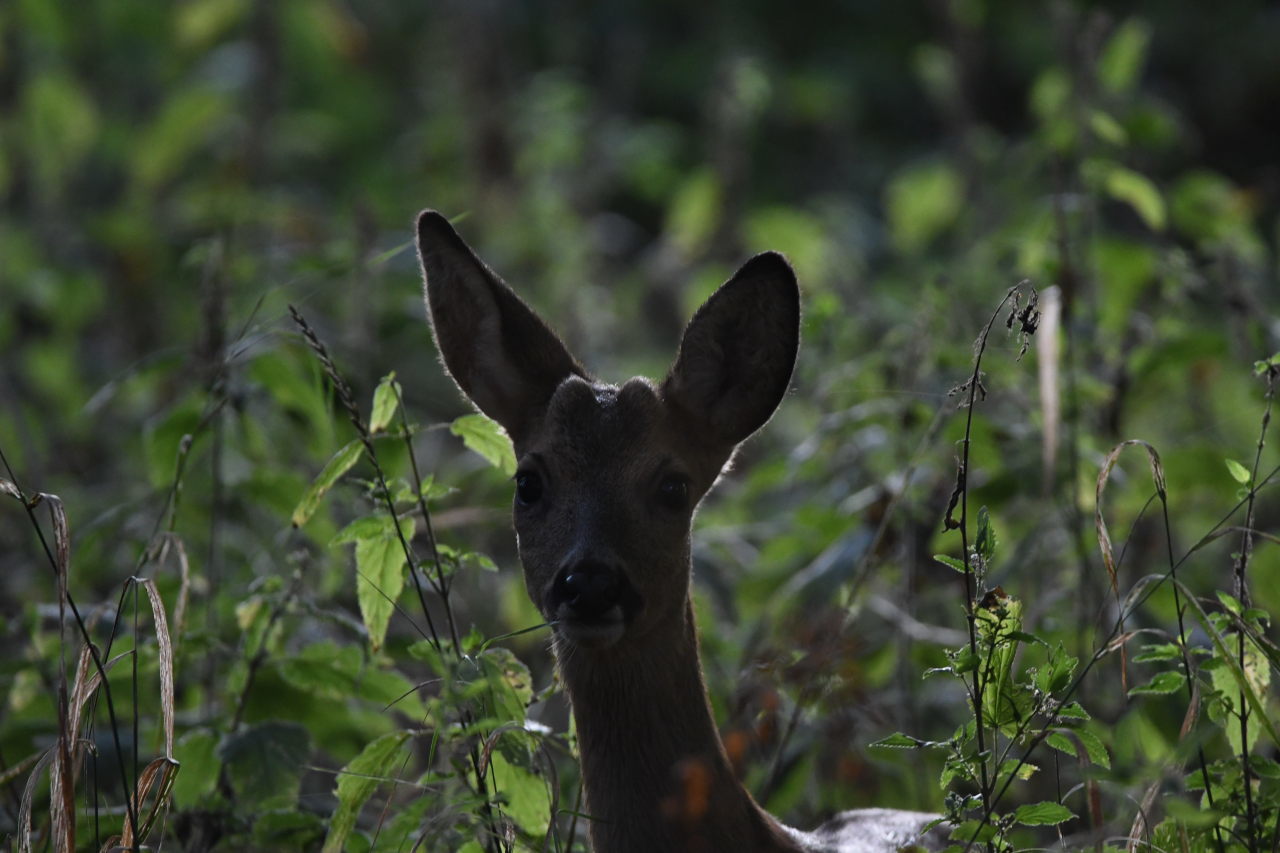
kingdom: Animalia
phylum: Chordata
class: Mammalia
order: Artiodactyla
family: Cervidae
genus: Capreolus
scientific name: Capreolus capreolus
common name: Western roe deer
